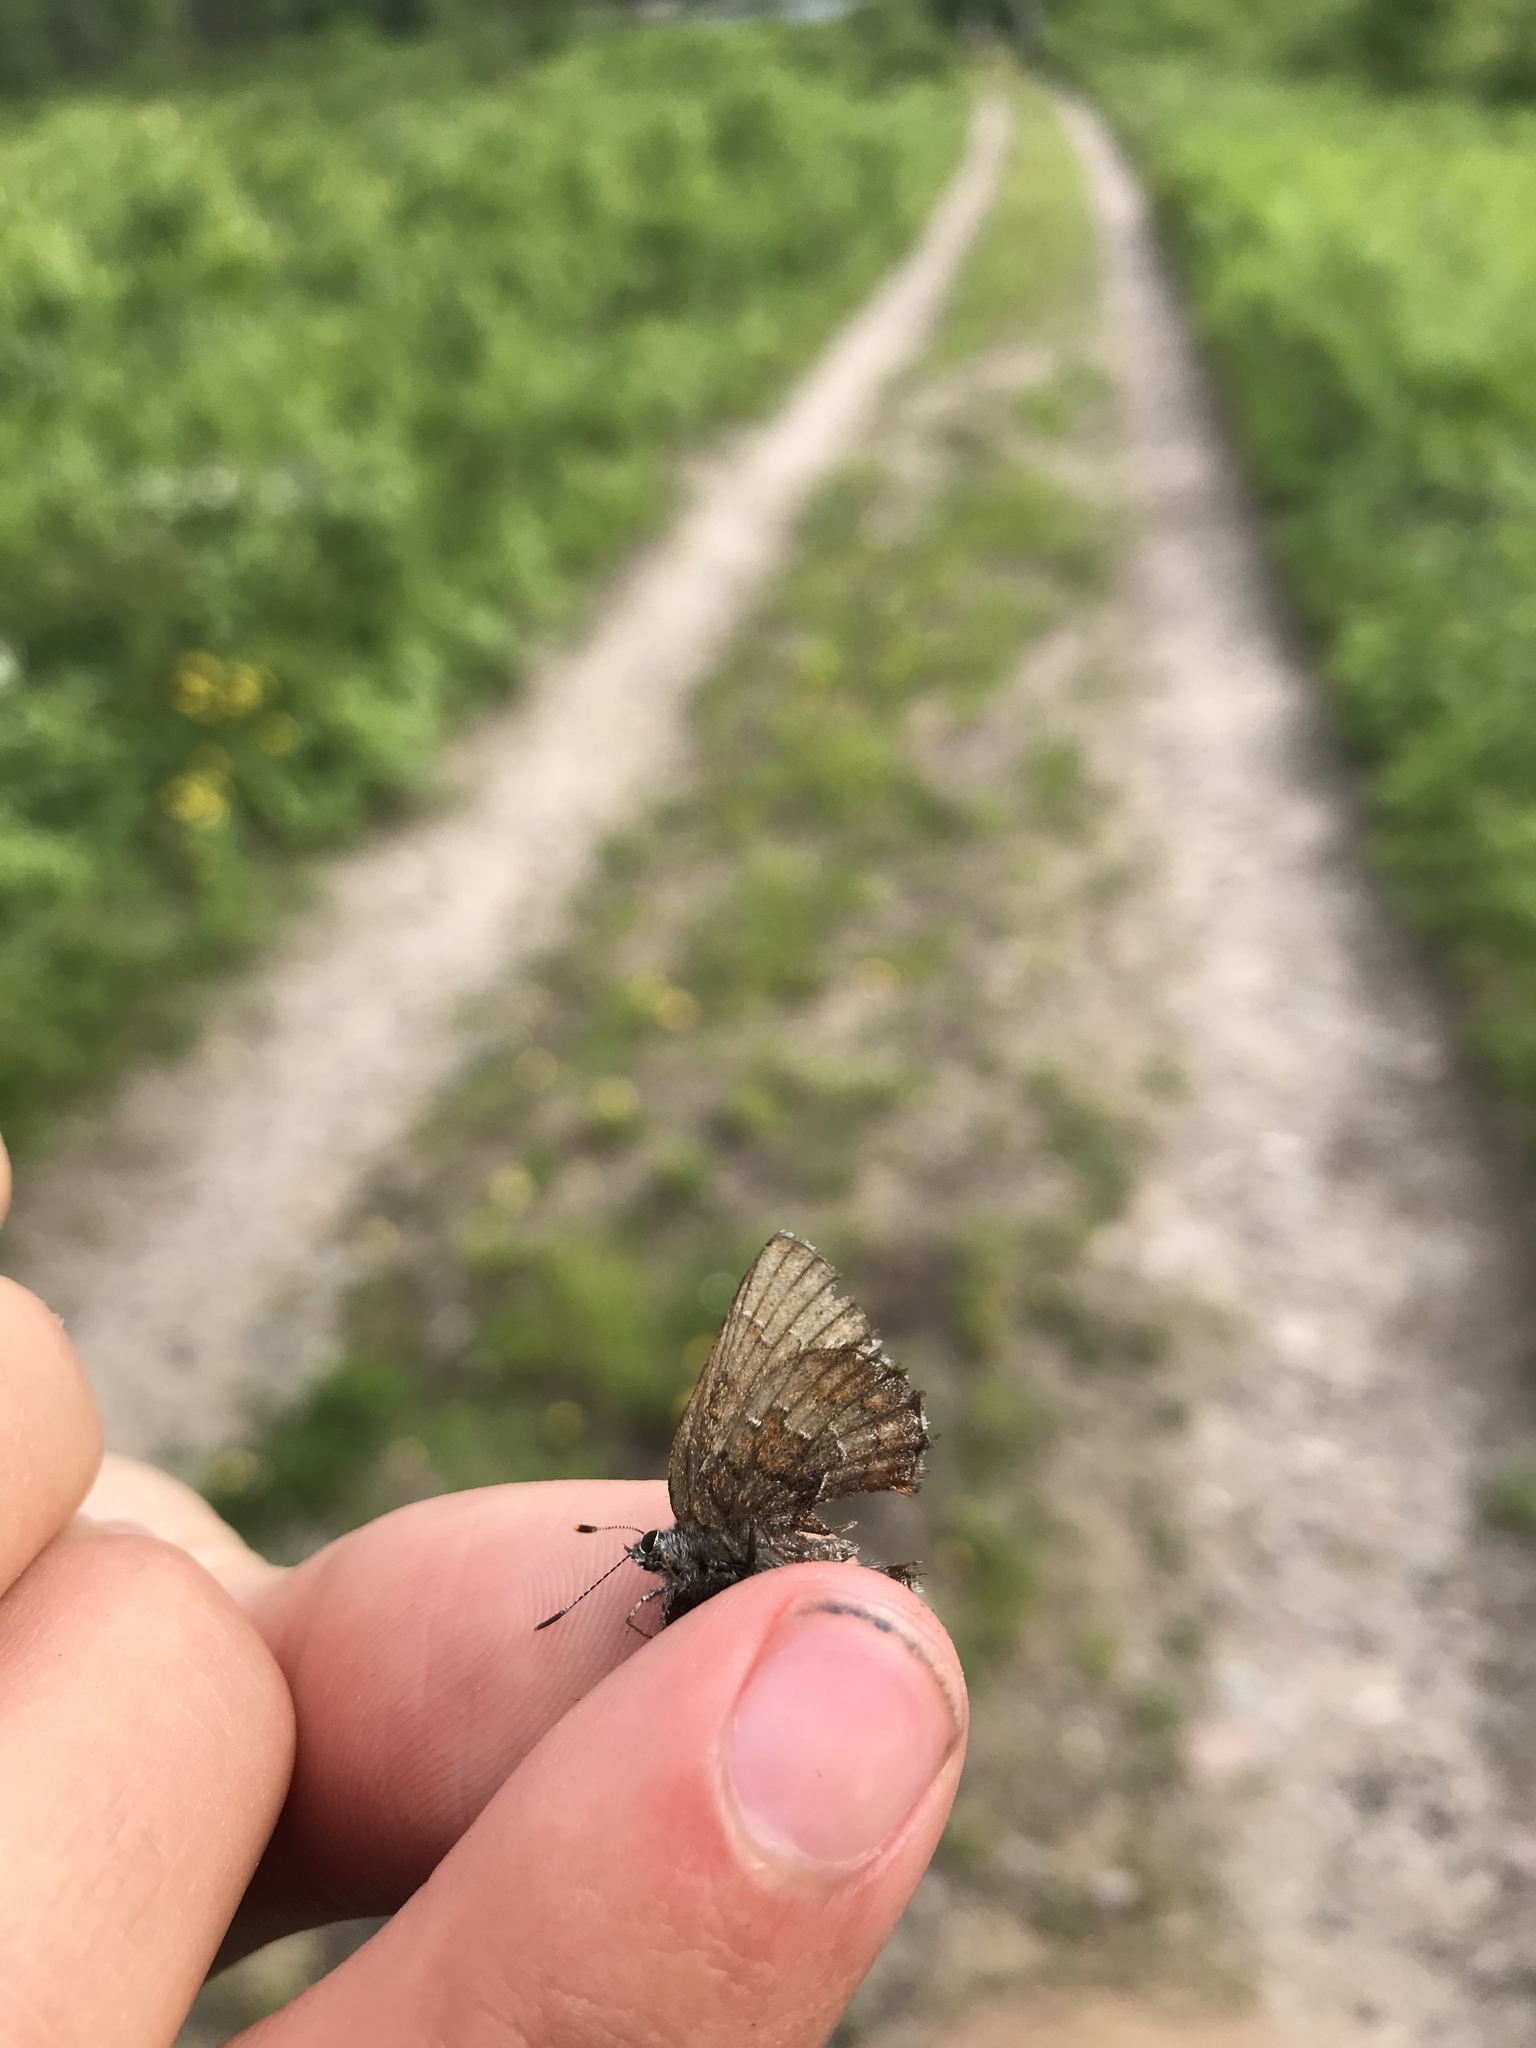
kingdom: Animalia
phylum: Arthropoda
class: Insecta
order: Lepidoptera
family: Lycaenidae
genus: Incisalia
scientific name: Incisalia niphon
